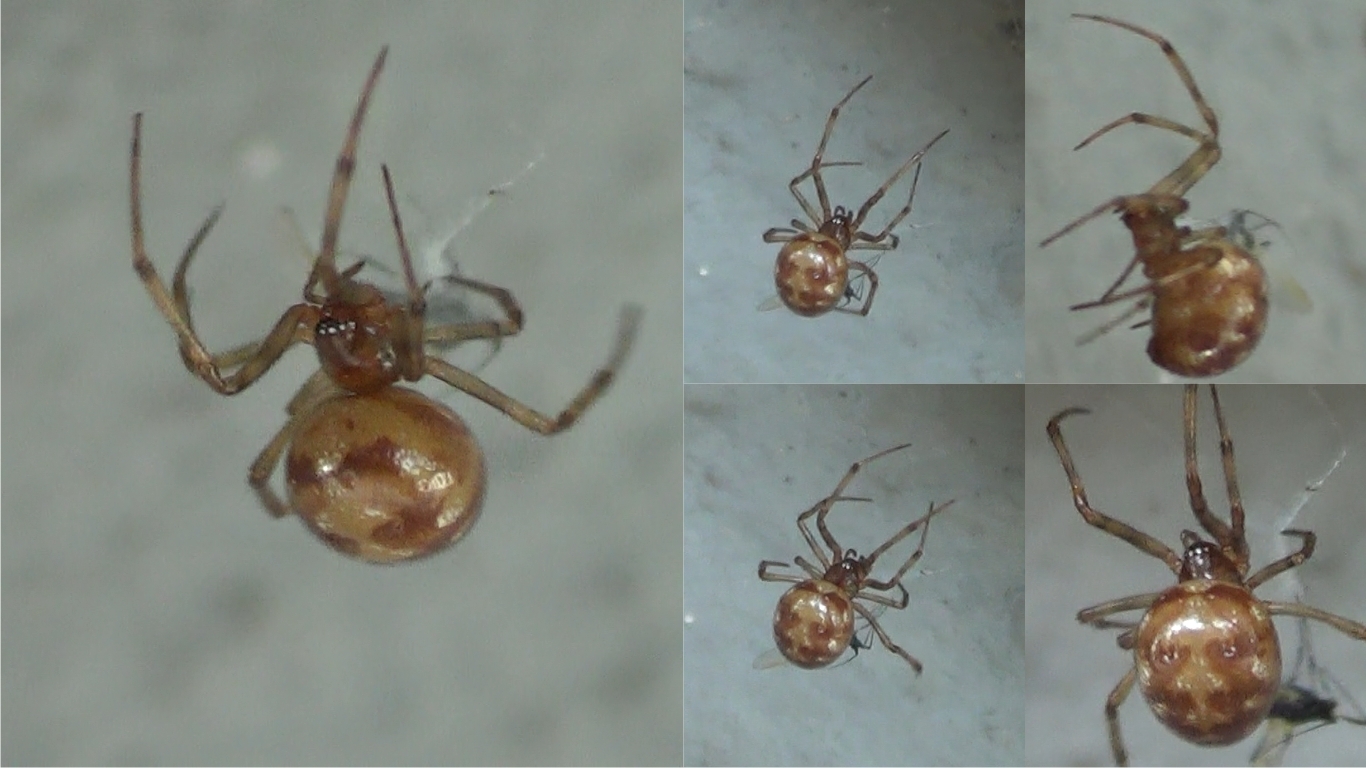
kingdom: Animalia
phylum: Arthropoda
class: Arachnida
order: Araneae
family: Theridiidae
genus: Steatoda
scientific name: Steatoda triangulosa
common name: Triangulate bud spider
